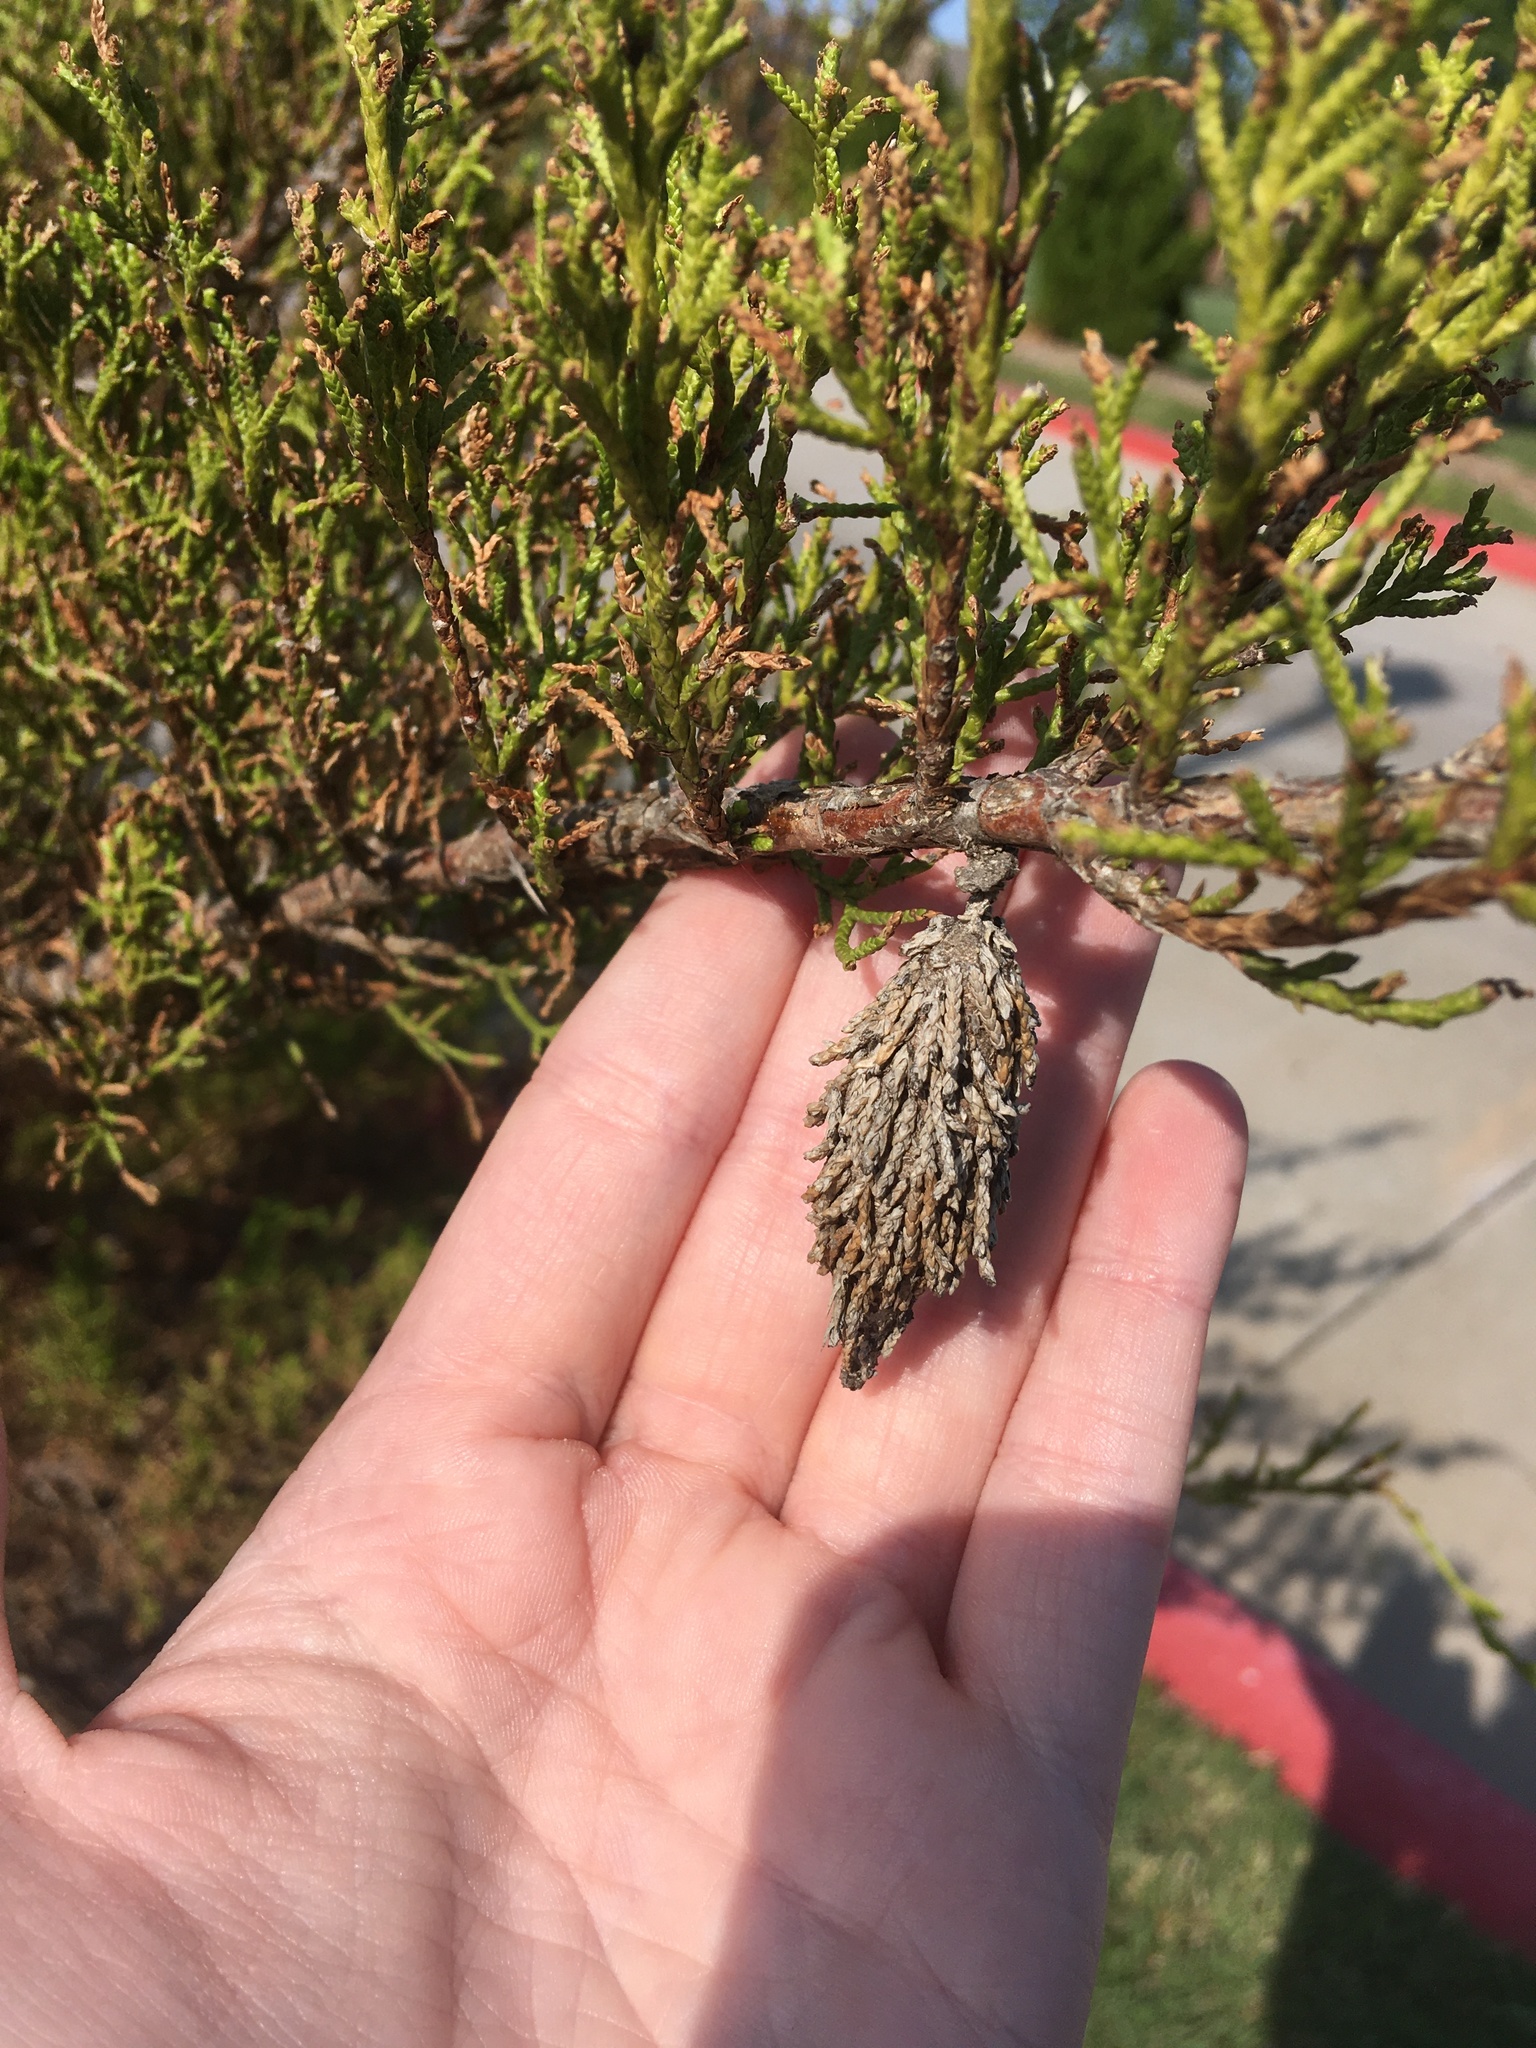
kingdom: Animalia
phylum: Arthropoda
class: Insecta
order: Lepidoptera
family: Psychidae
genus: Thyridopteryx
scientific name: Thyridopteryx ephemeraeformis
